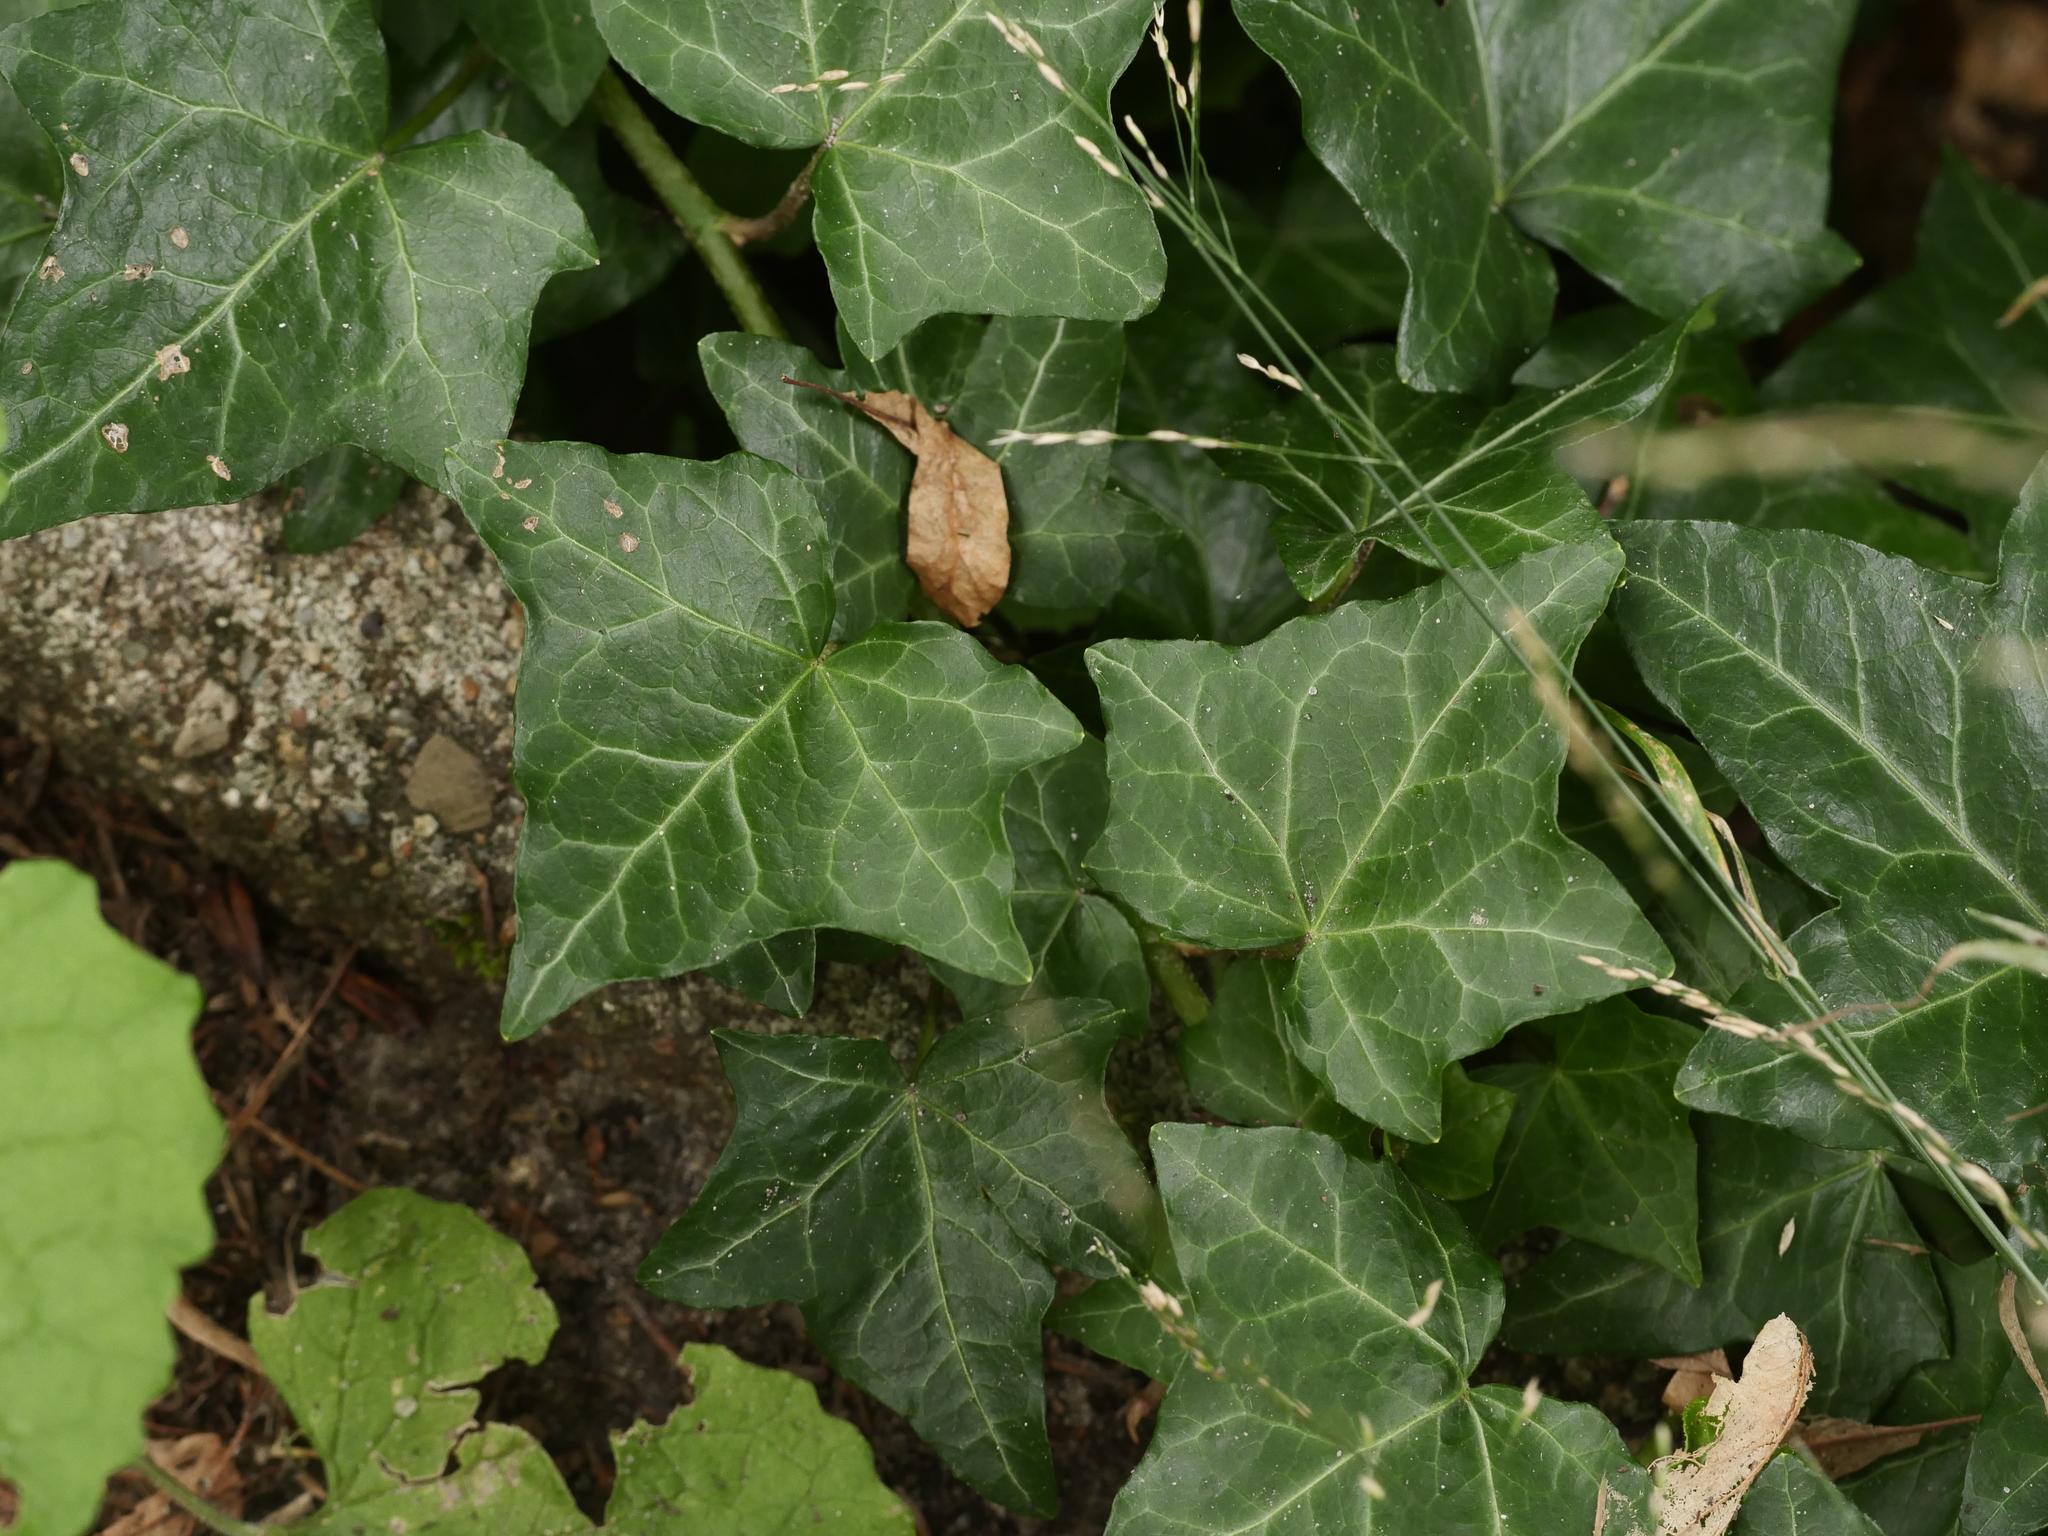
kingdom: Plantae
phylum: Tracheophyta
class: Magnoliopsida
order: Apiales
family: Araliaceae
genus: Hedera
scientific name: Hedera helix
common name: Ivy
